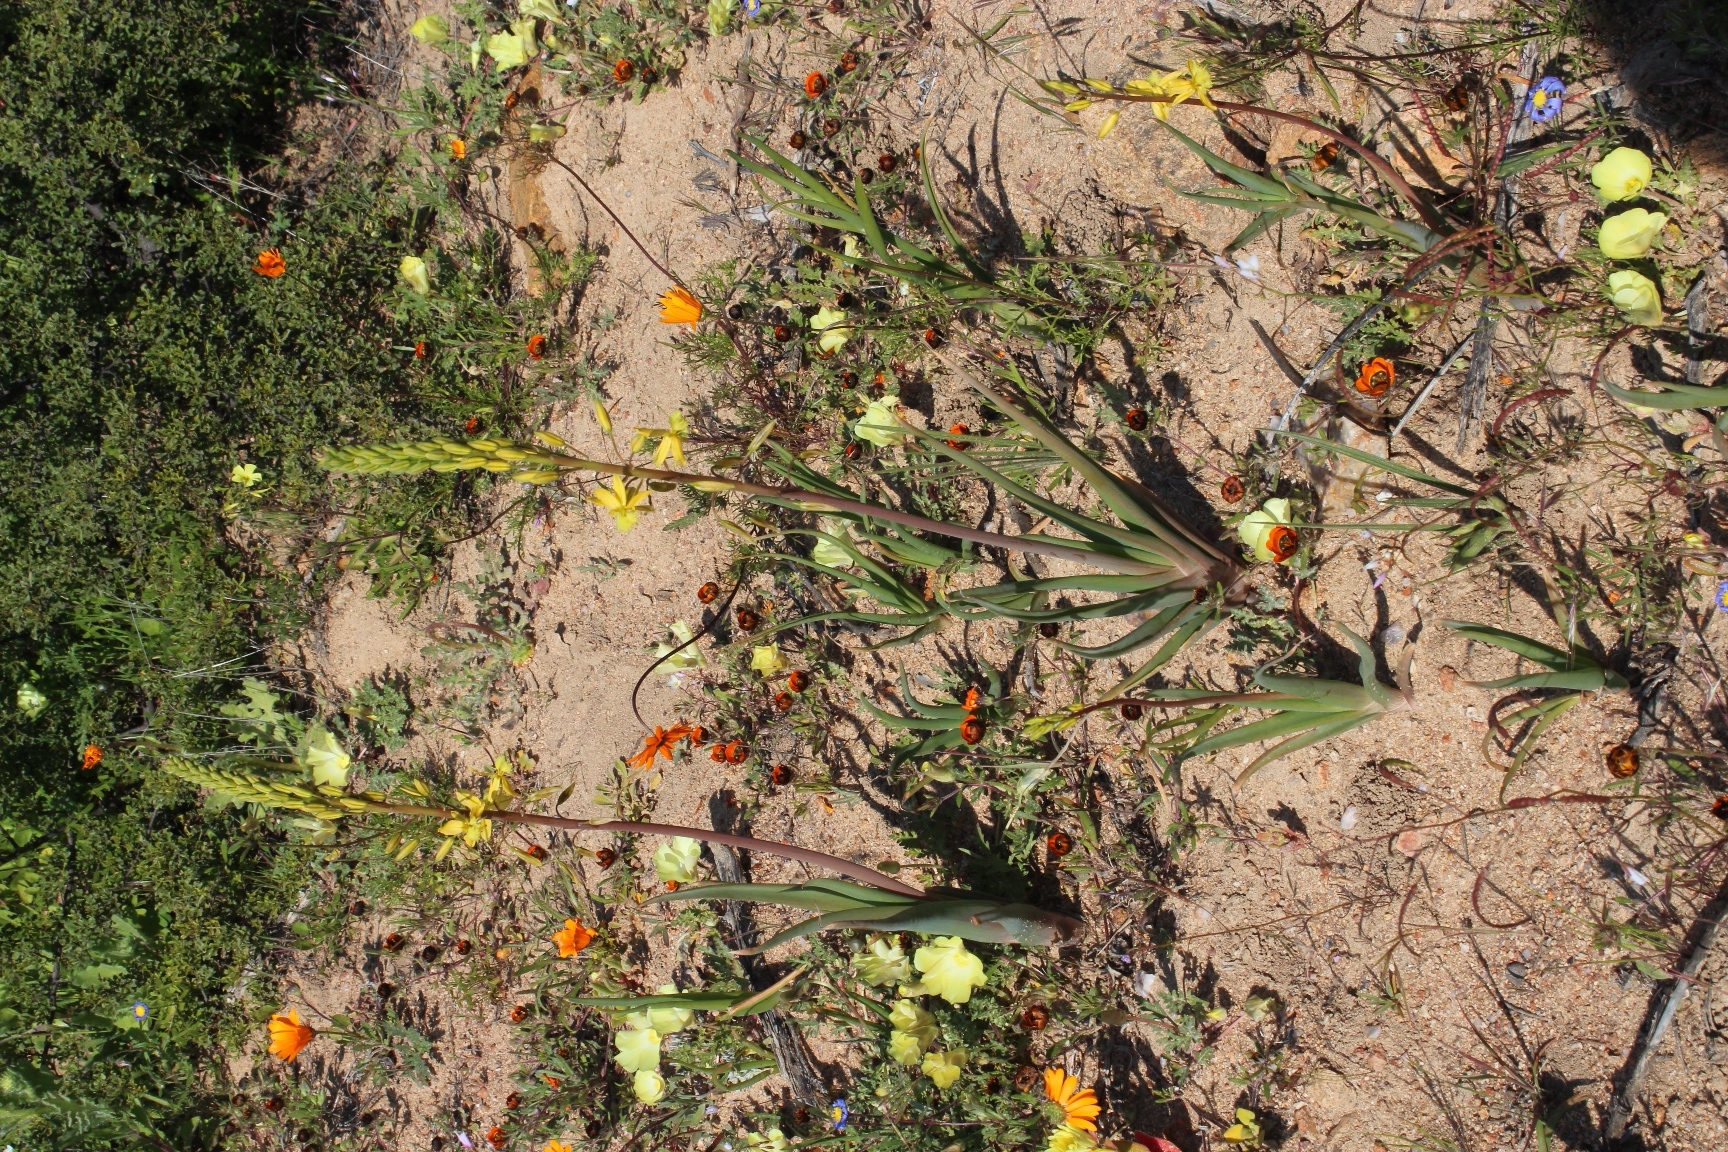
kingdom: Plantae
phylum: Tracheophyta
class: Liliopsida
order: Asparagales
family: Asphodelaceae
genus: Bulbine
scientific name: Bulbine praemorsa
